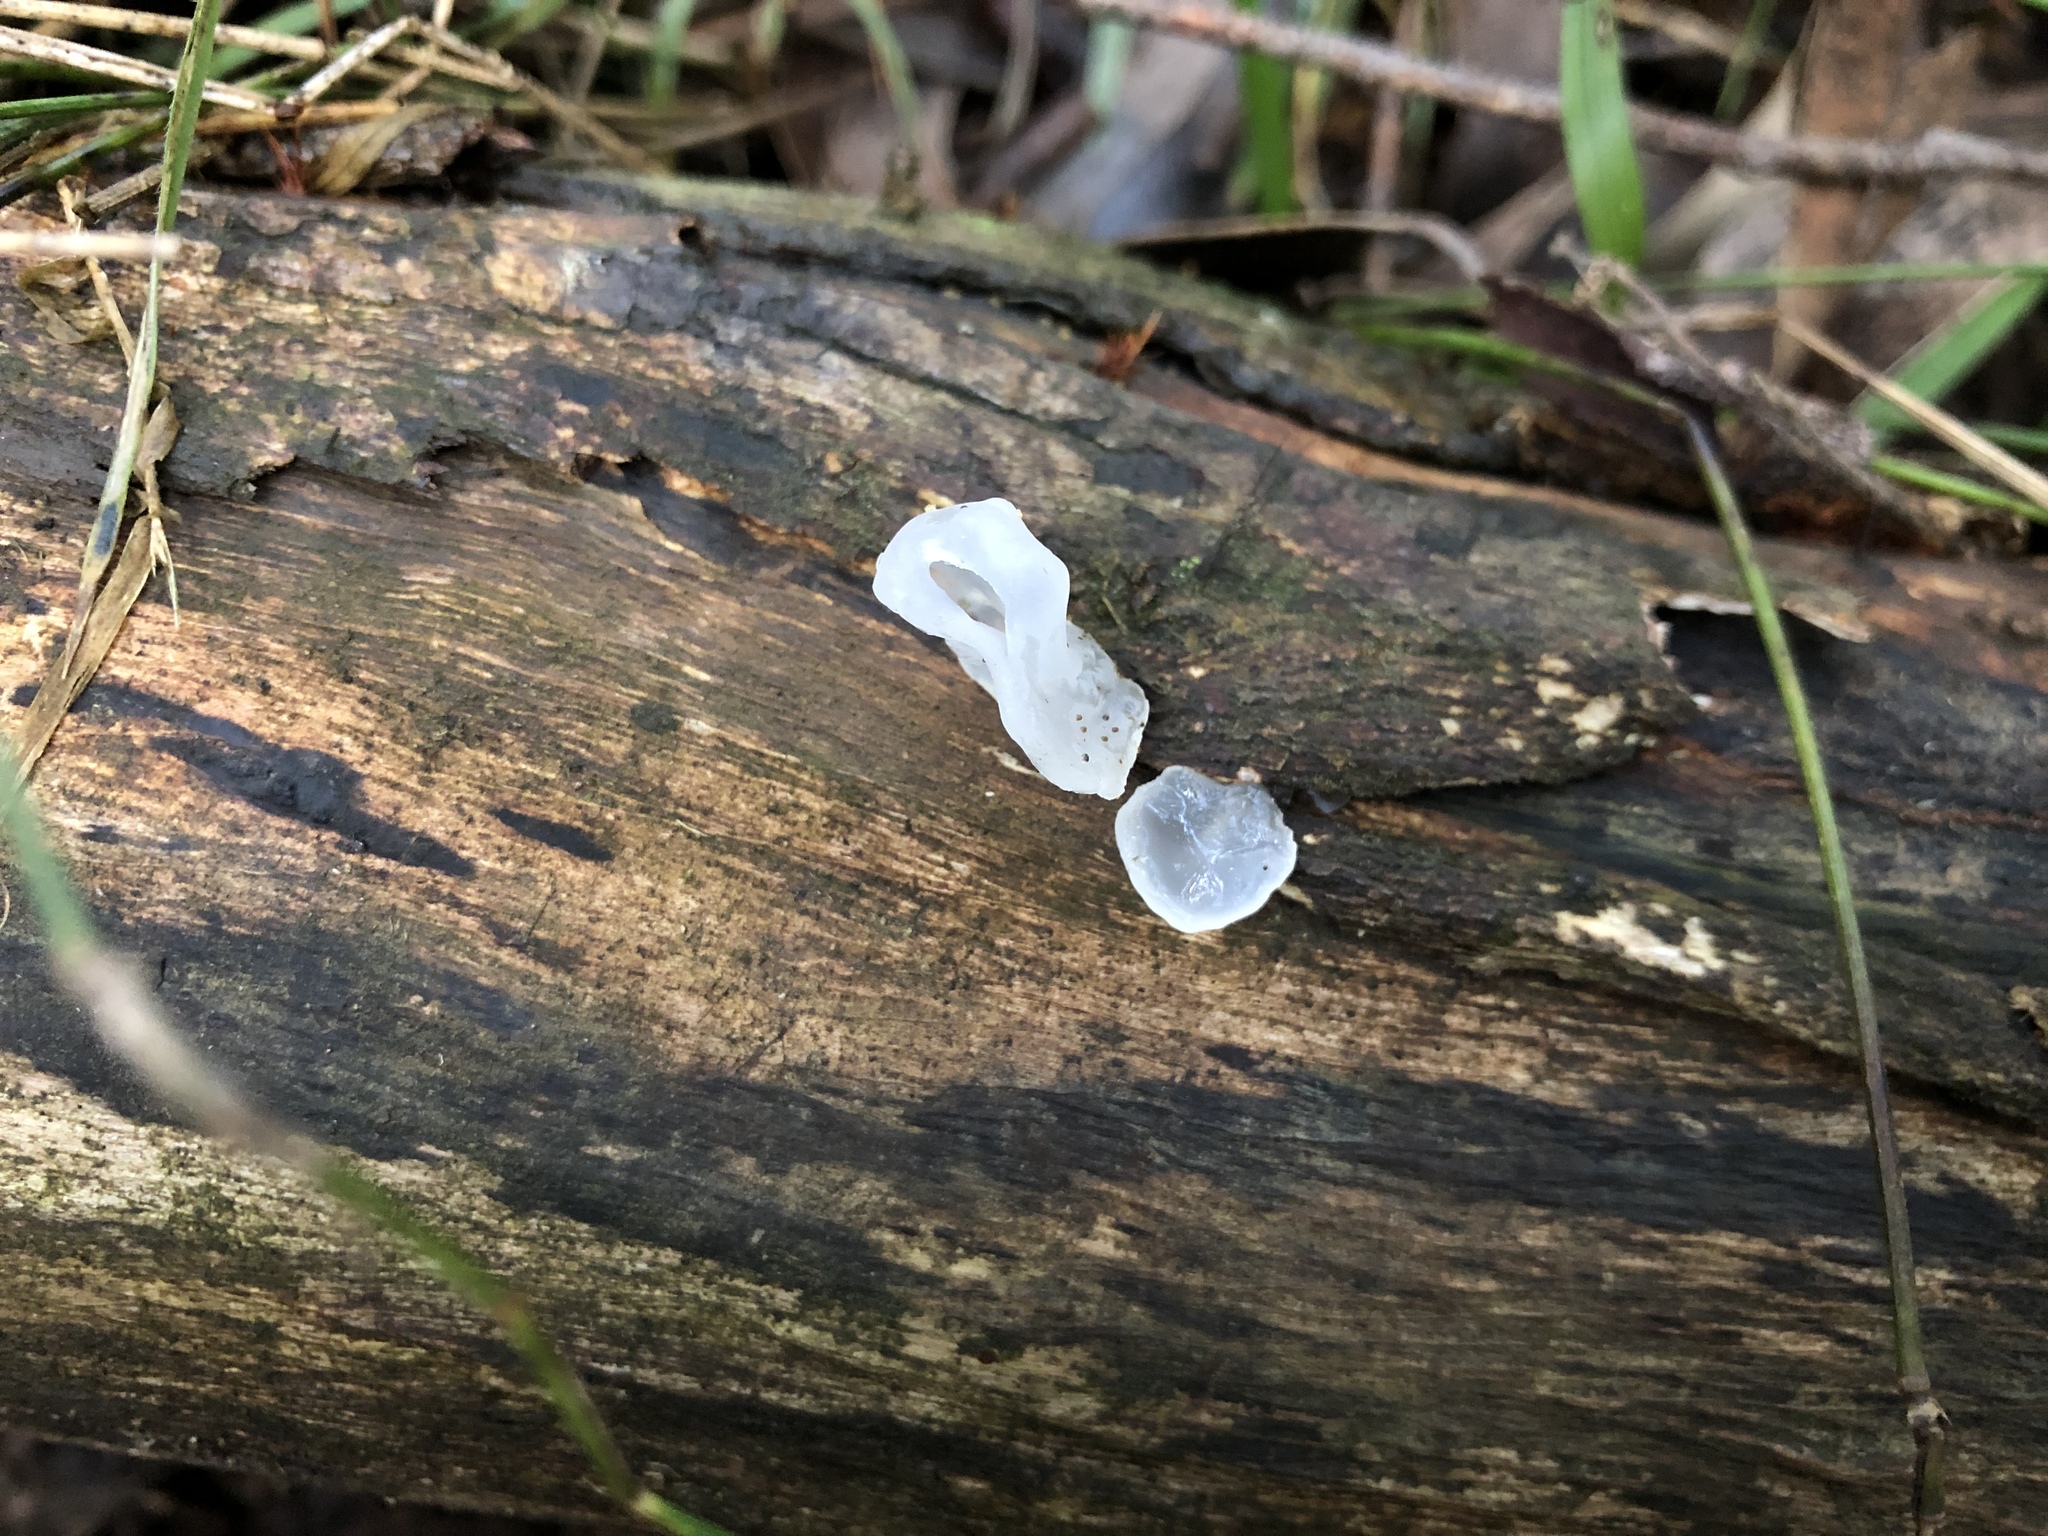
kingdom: Fungi
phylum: Basidiomycota
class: Tremellomycetes
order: Tremellales
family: Tremellaceae
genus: Tremella
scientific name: Tremella fuciformis
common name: Snow fungus
